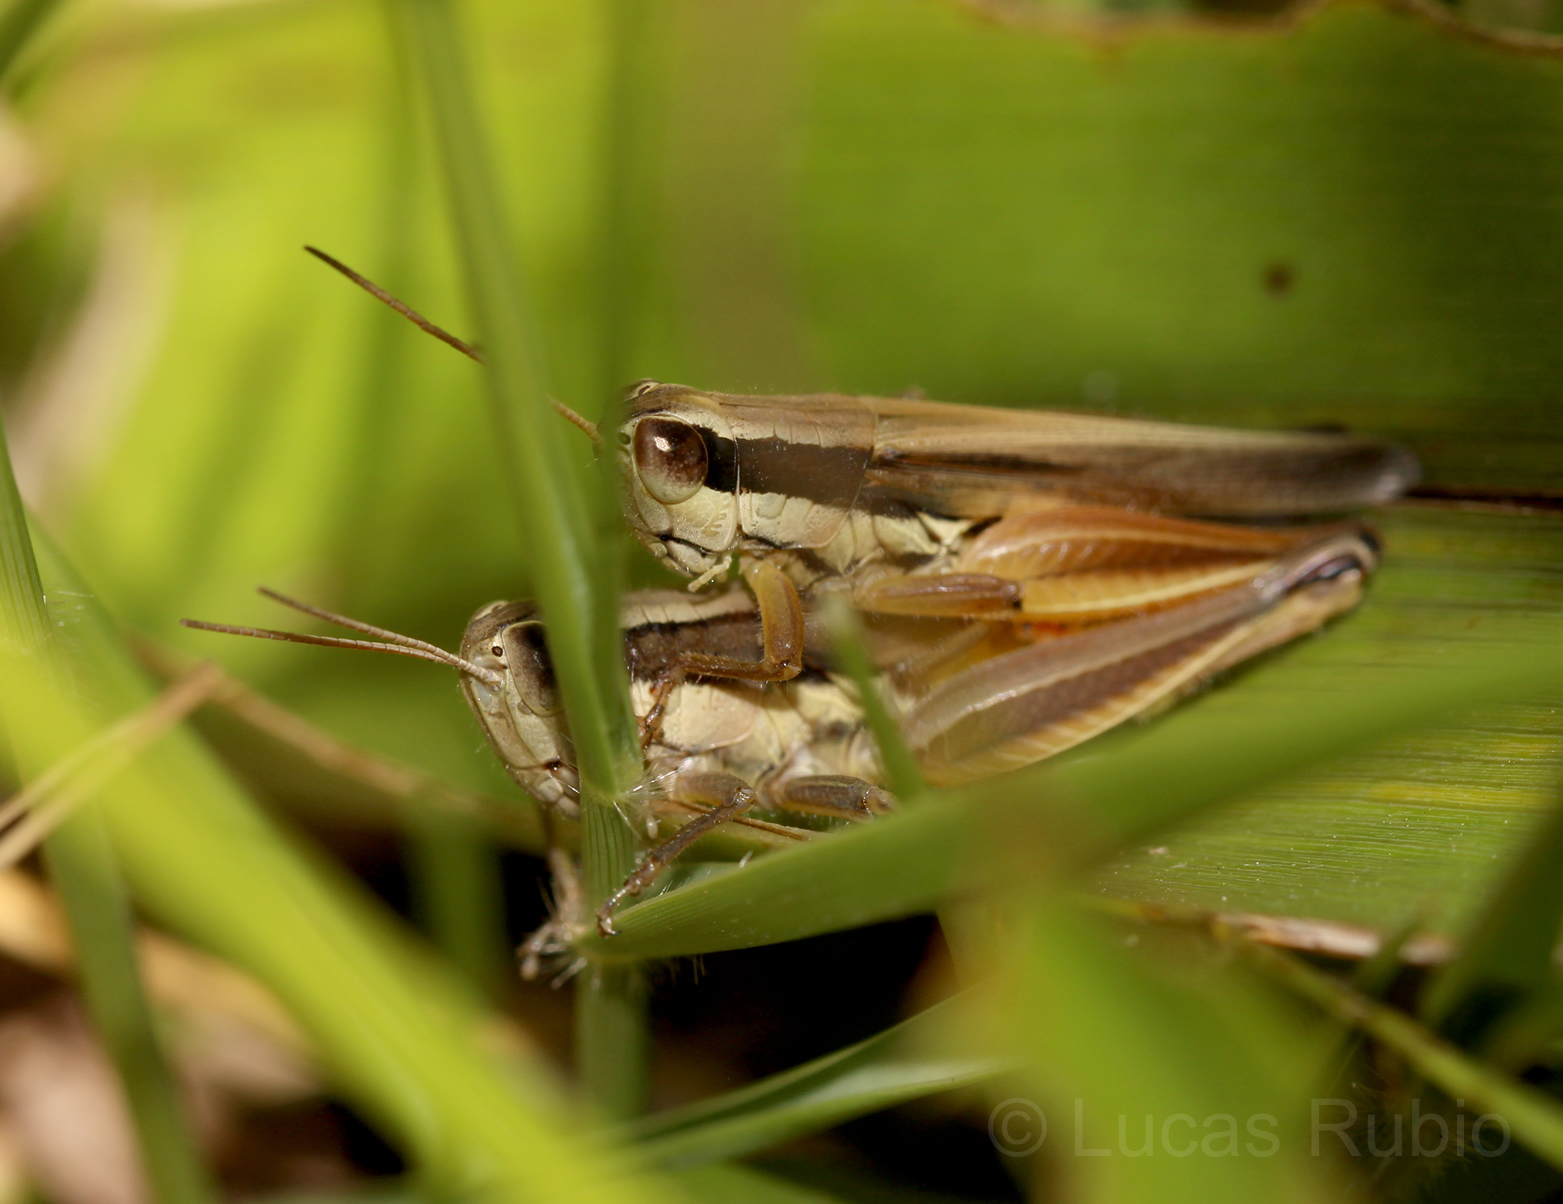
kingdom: Animalia
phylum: Arthropoda
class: Insecta
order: Orthoptera
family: Acrididae
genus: Scotussa
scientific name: Scotussa lemniscata
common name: Slender orange-legged grasshopper
